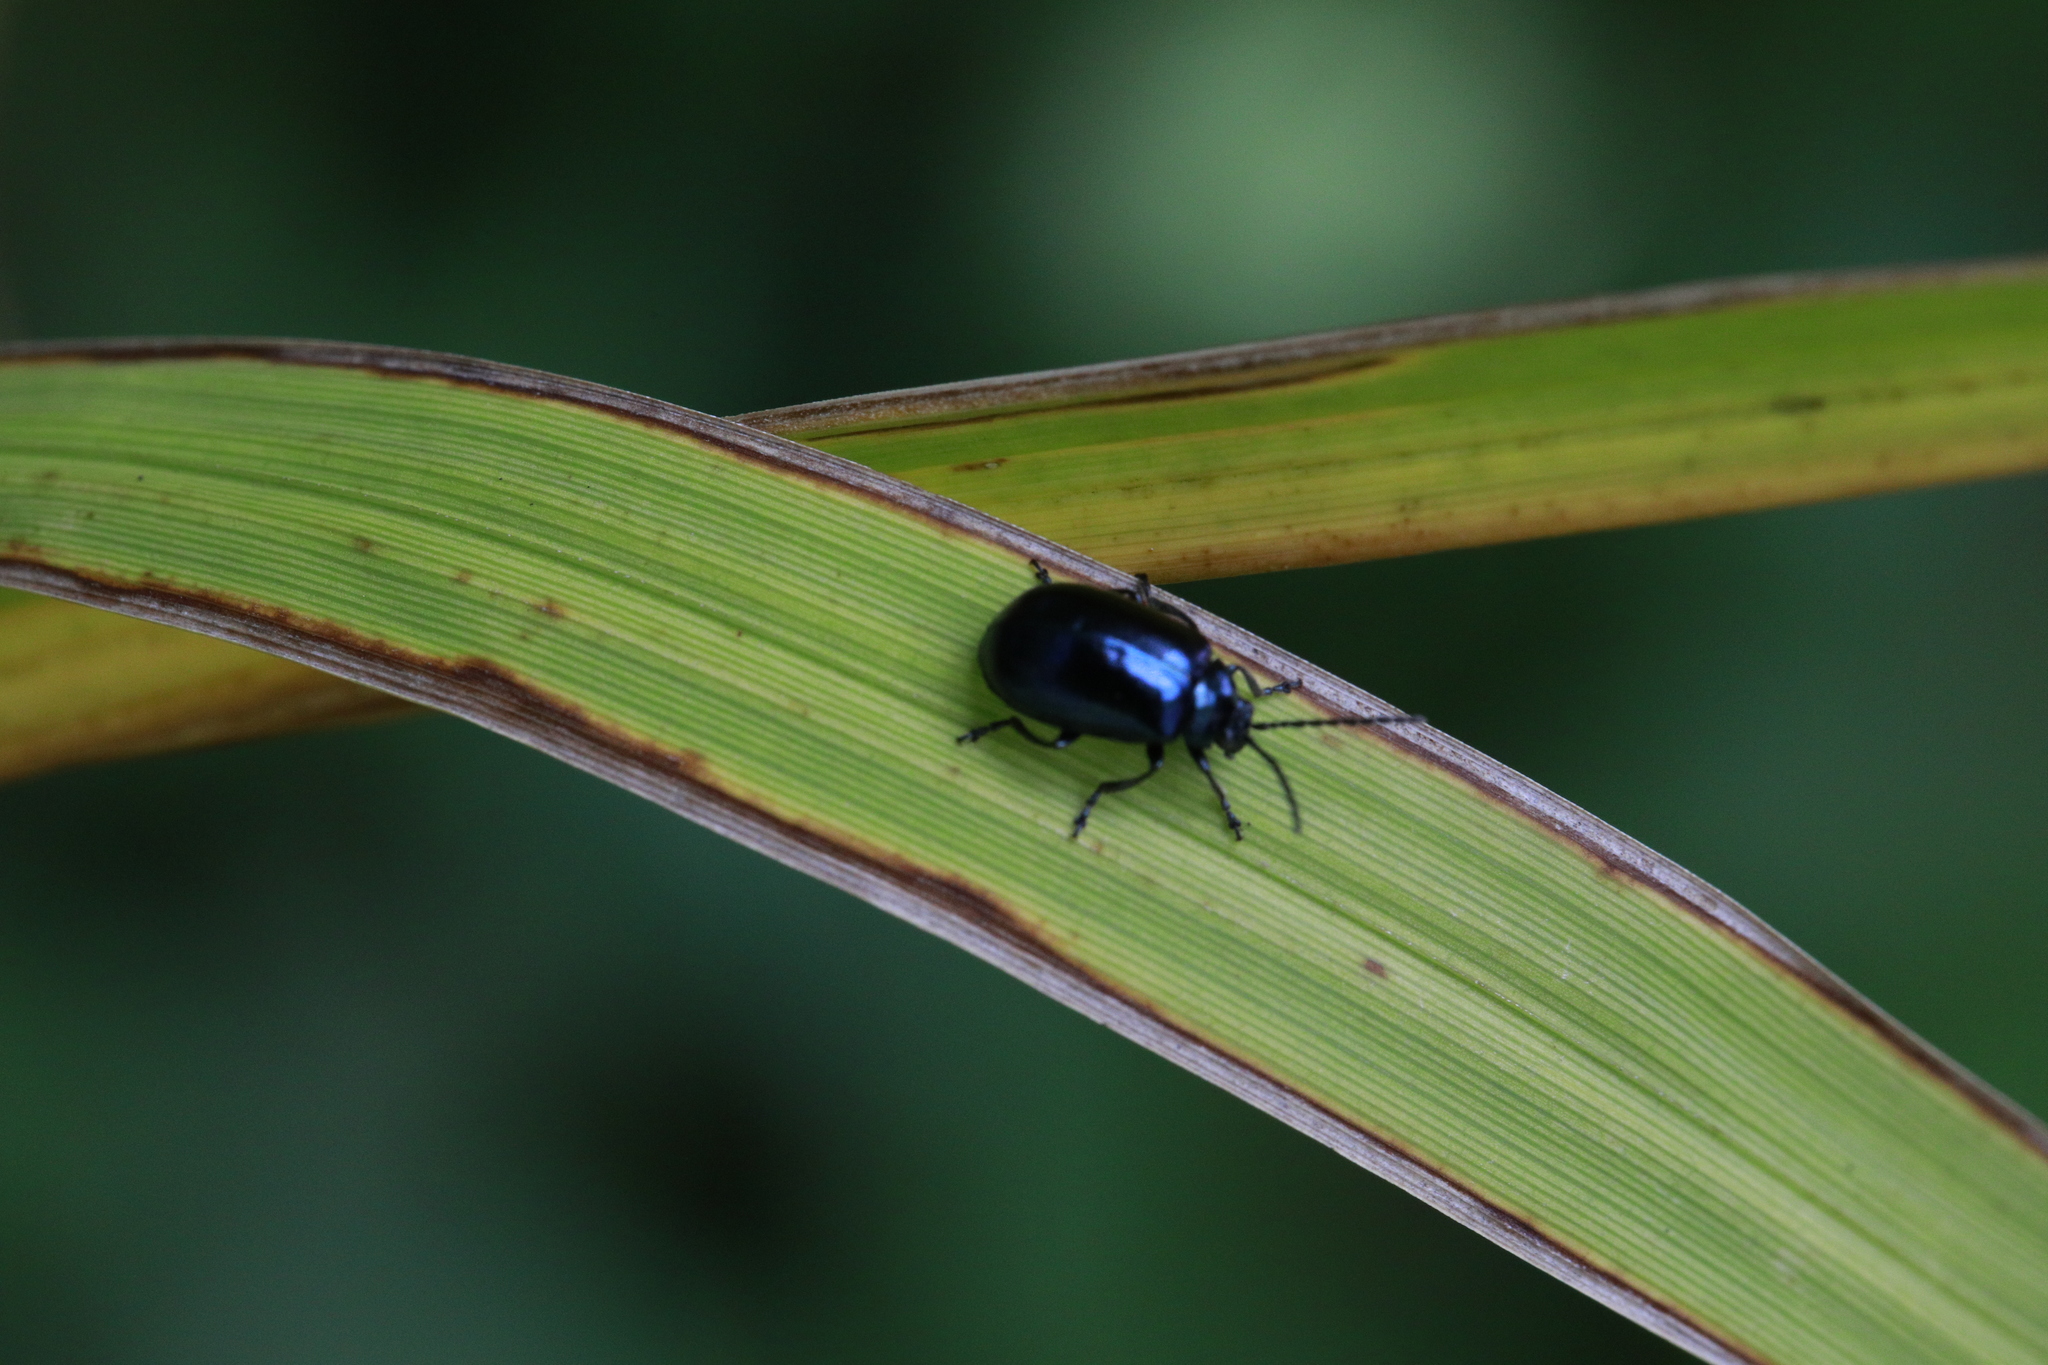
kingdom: Animalia
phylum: Arthropoda
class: Insecta
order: Coleoptera
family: Chrysomelidae
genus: Agelastica
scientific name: Agelastica alni
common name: Alder leaf beetle
